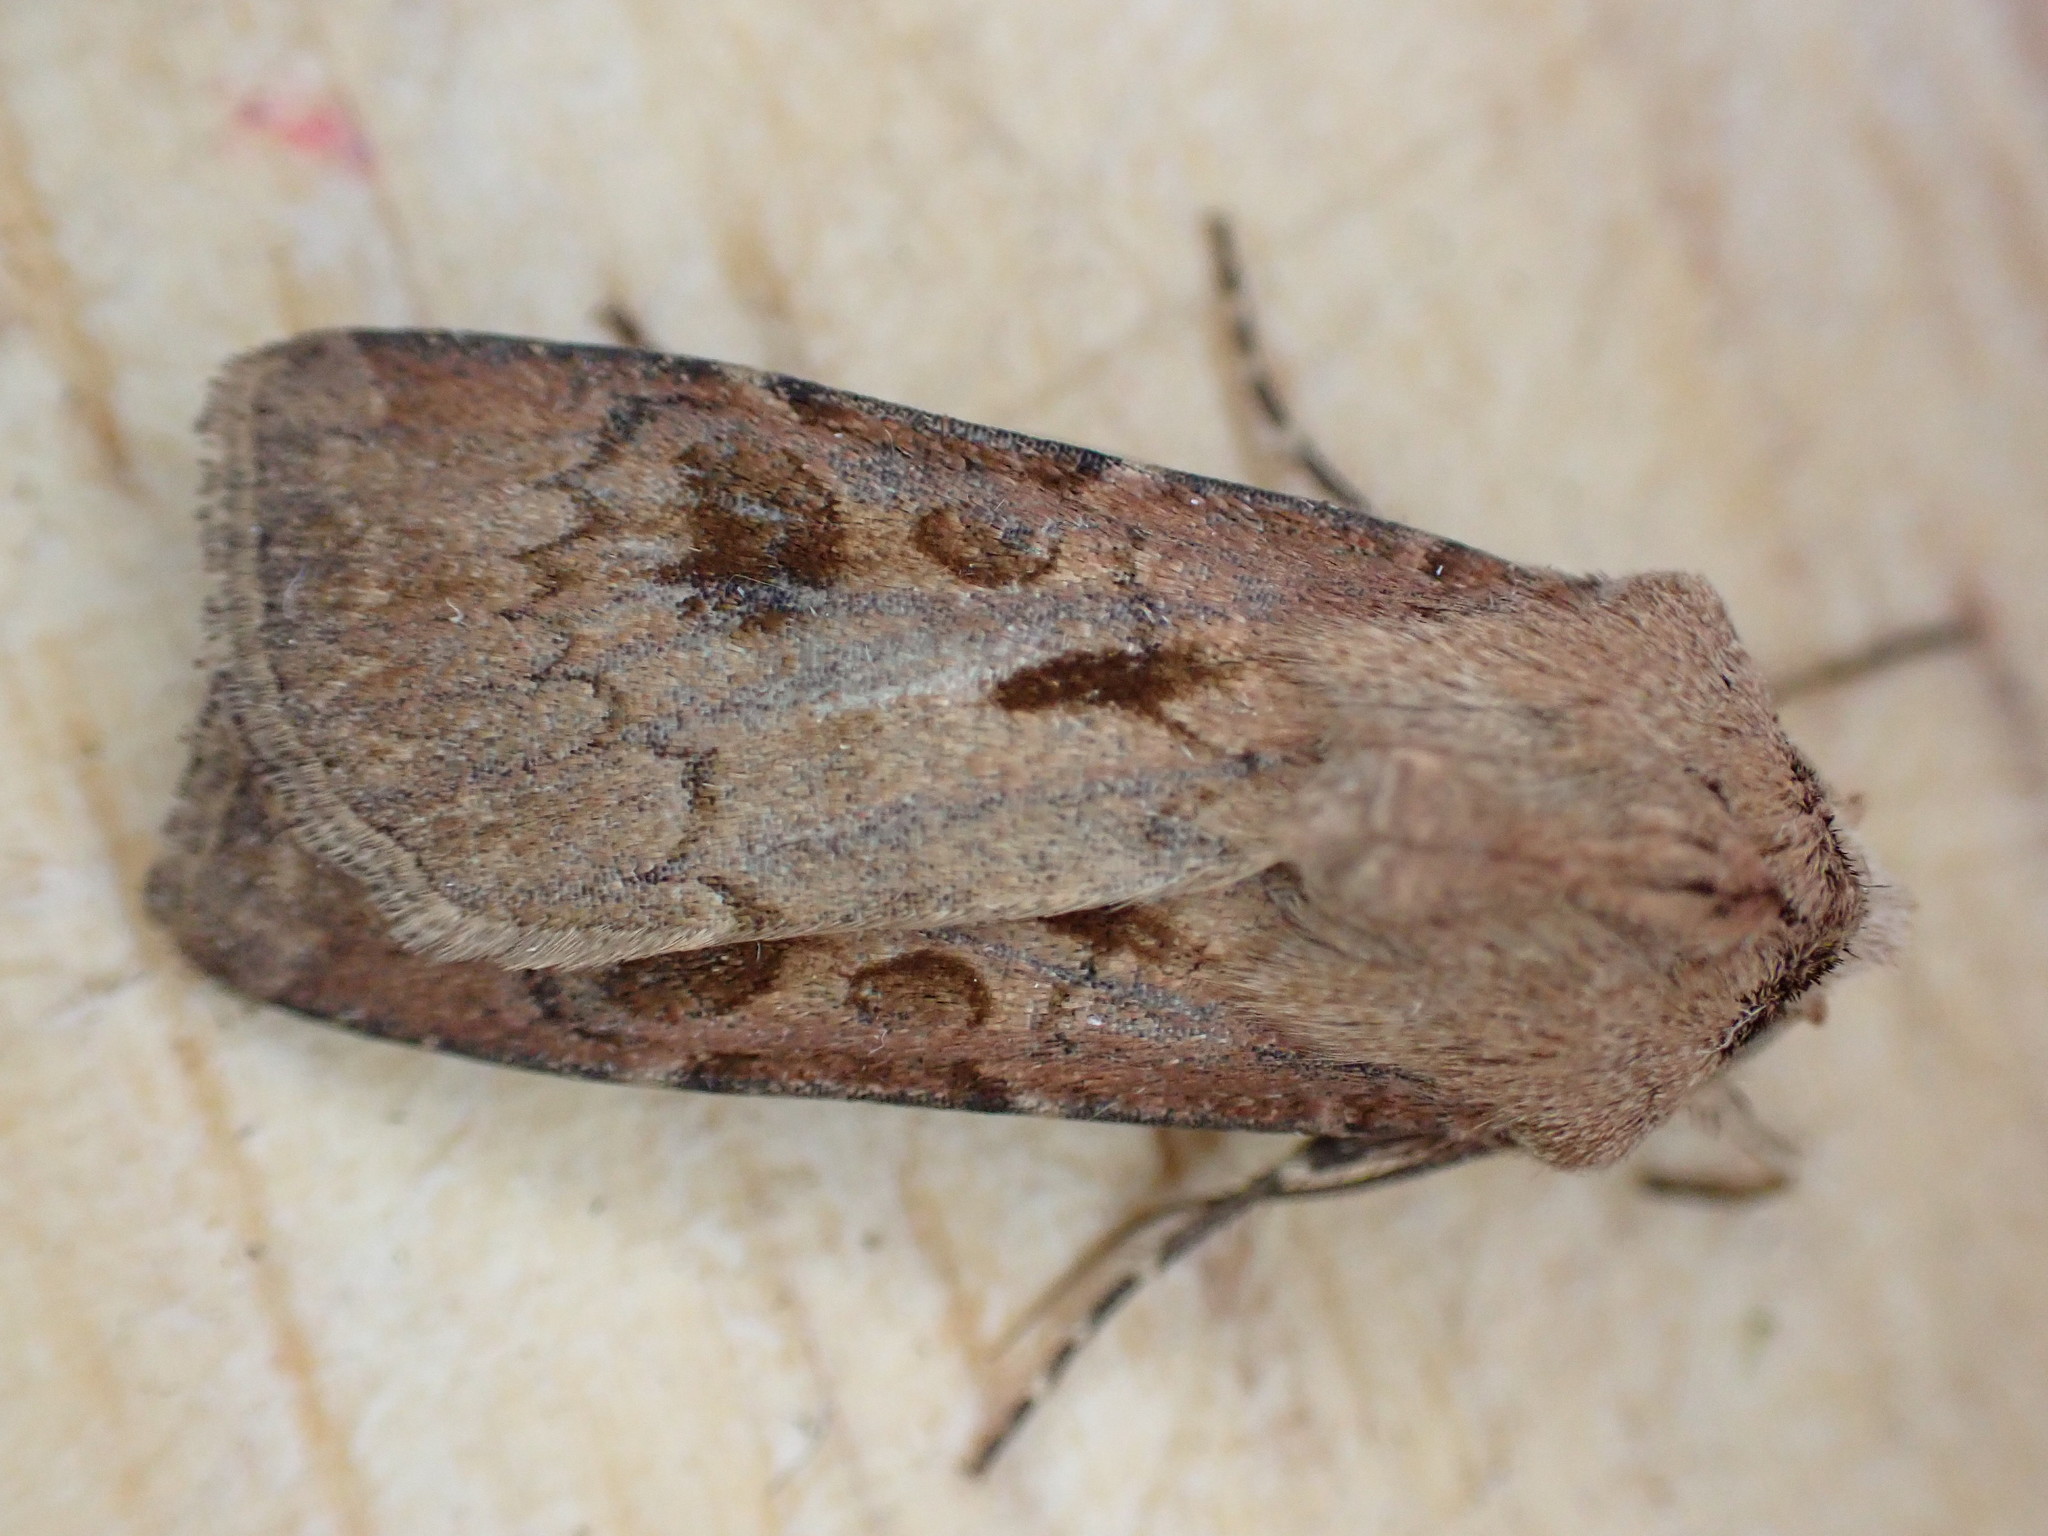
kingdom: Animalia
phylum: Arthropoda
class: Insecta
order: Lepidoptera
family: Noctuidae
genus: Agrotis
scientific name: Agrotis exclamationis
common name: Heart and dart
